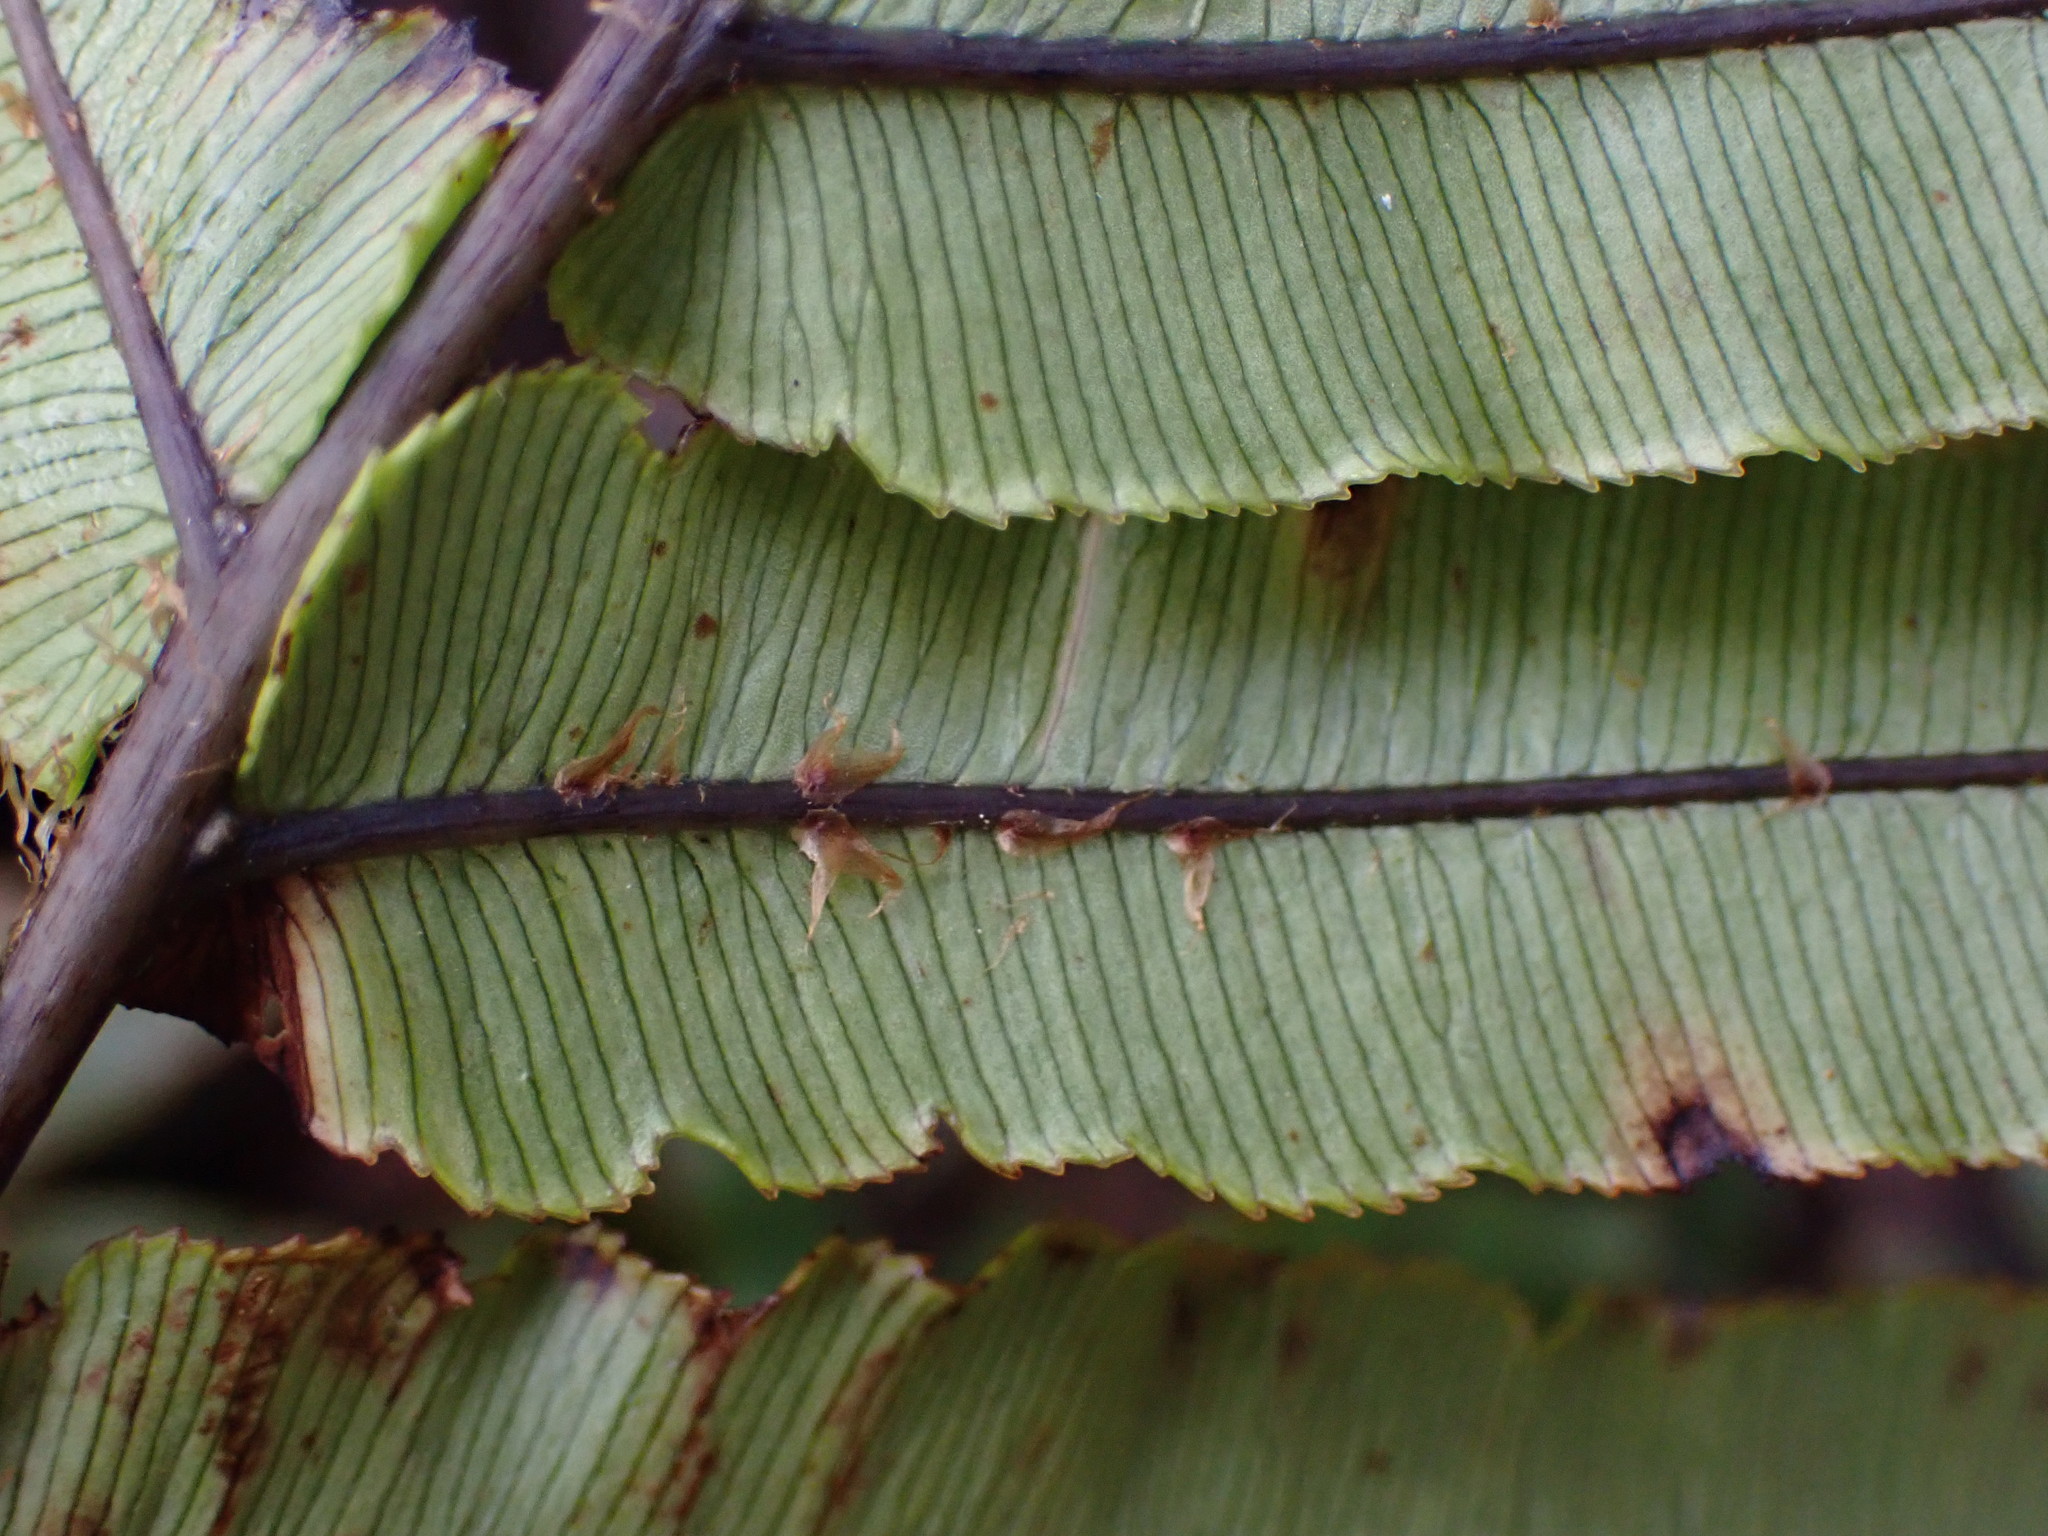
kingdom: Plantae
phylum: Tracheophyta
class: Polypodiopsida
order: Polypodiales
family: Blechnaceae
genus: Parablechnum
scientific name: Parablechnum procerum
